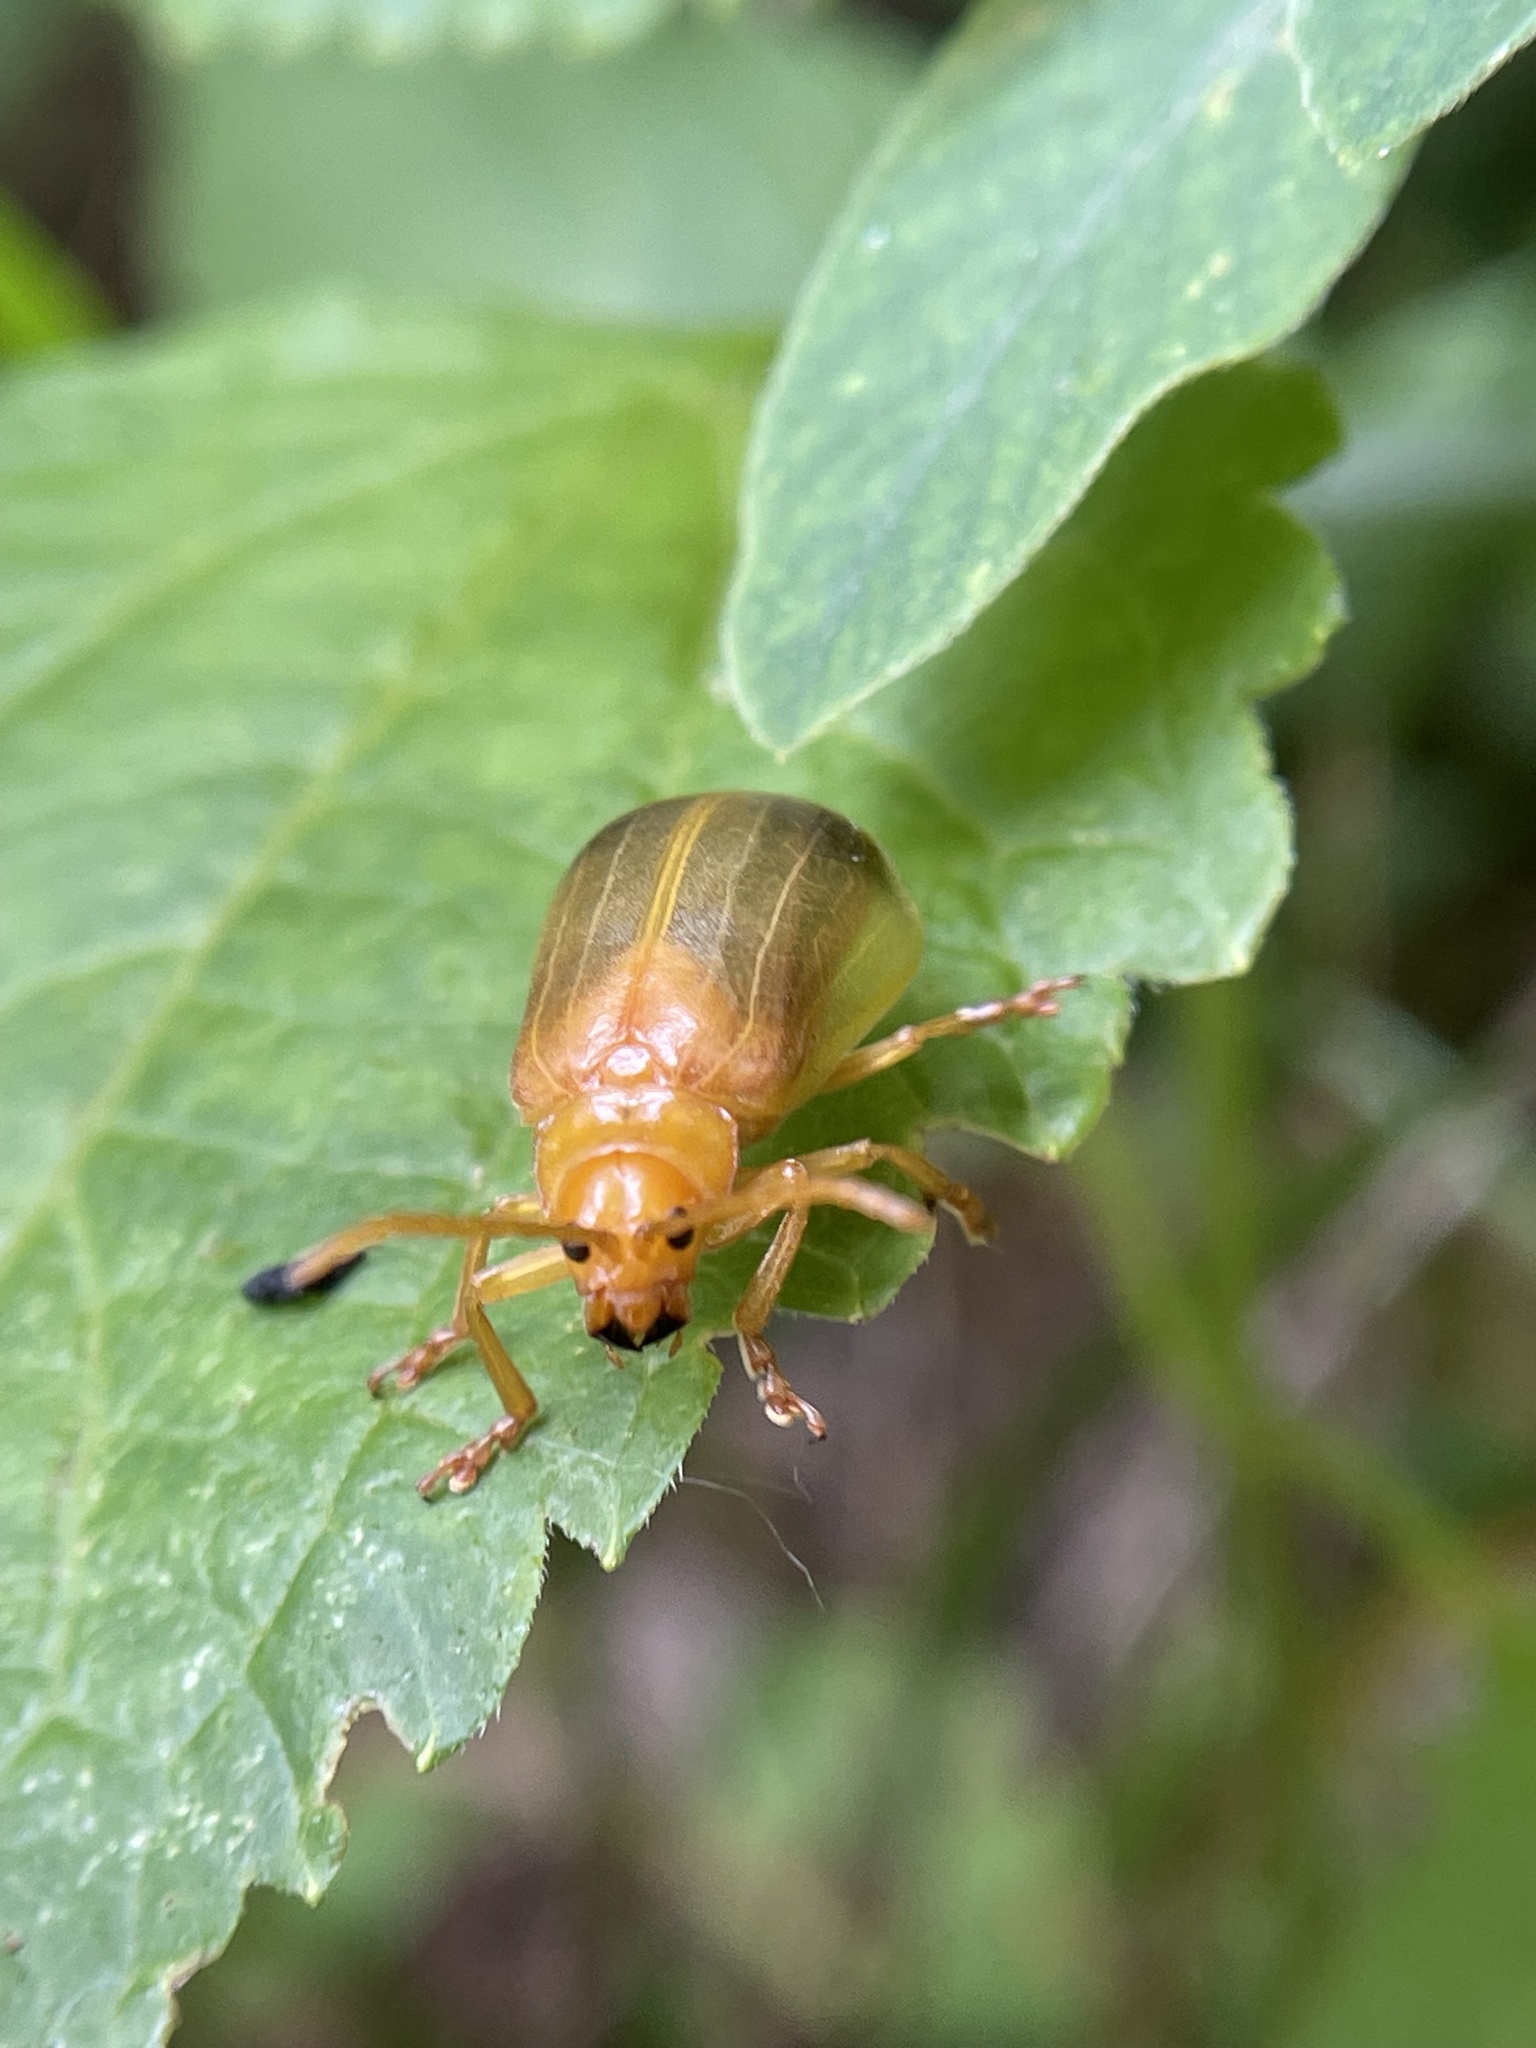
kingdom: Animalia
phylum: Arthropoda
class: Insecta
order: Coleoptera
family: Chrysomelidae
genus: Monocesta
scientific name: Monocesta coryli
